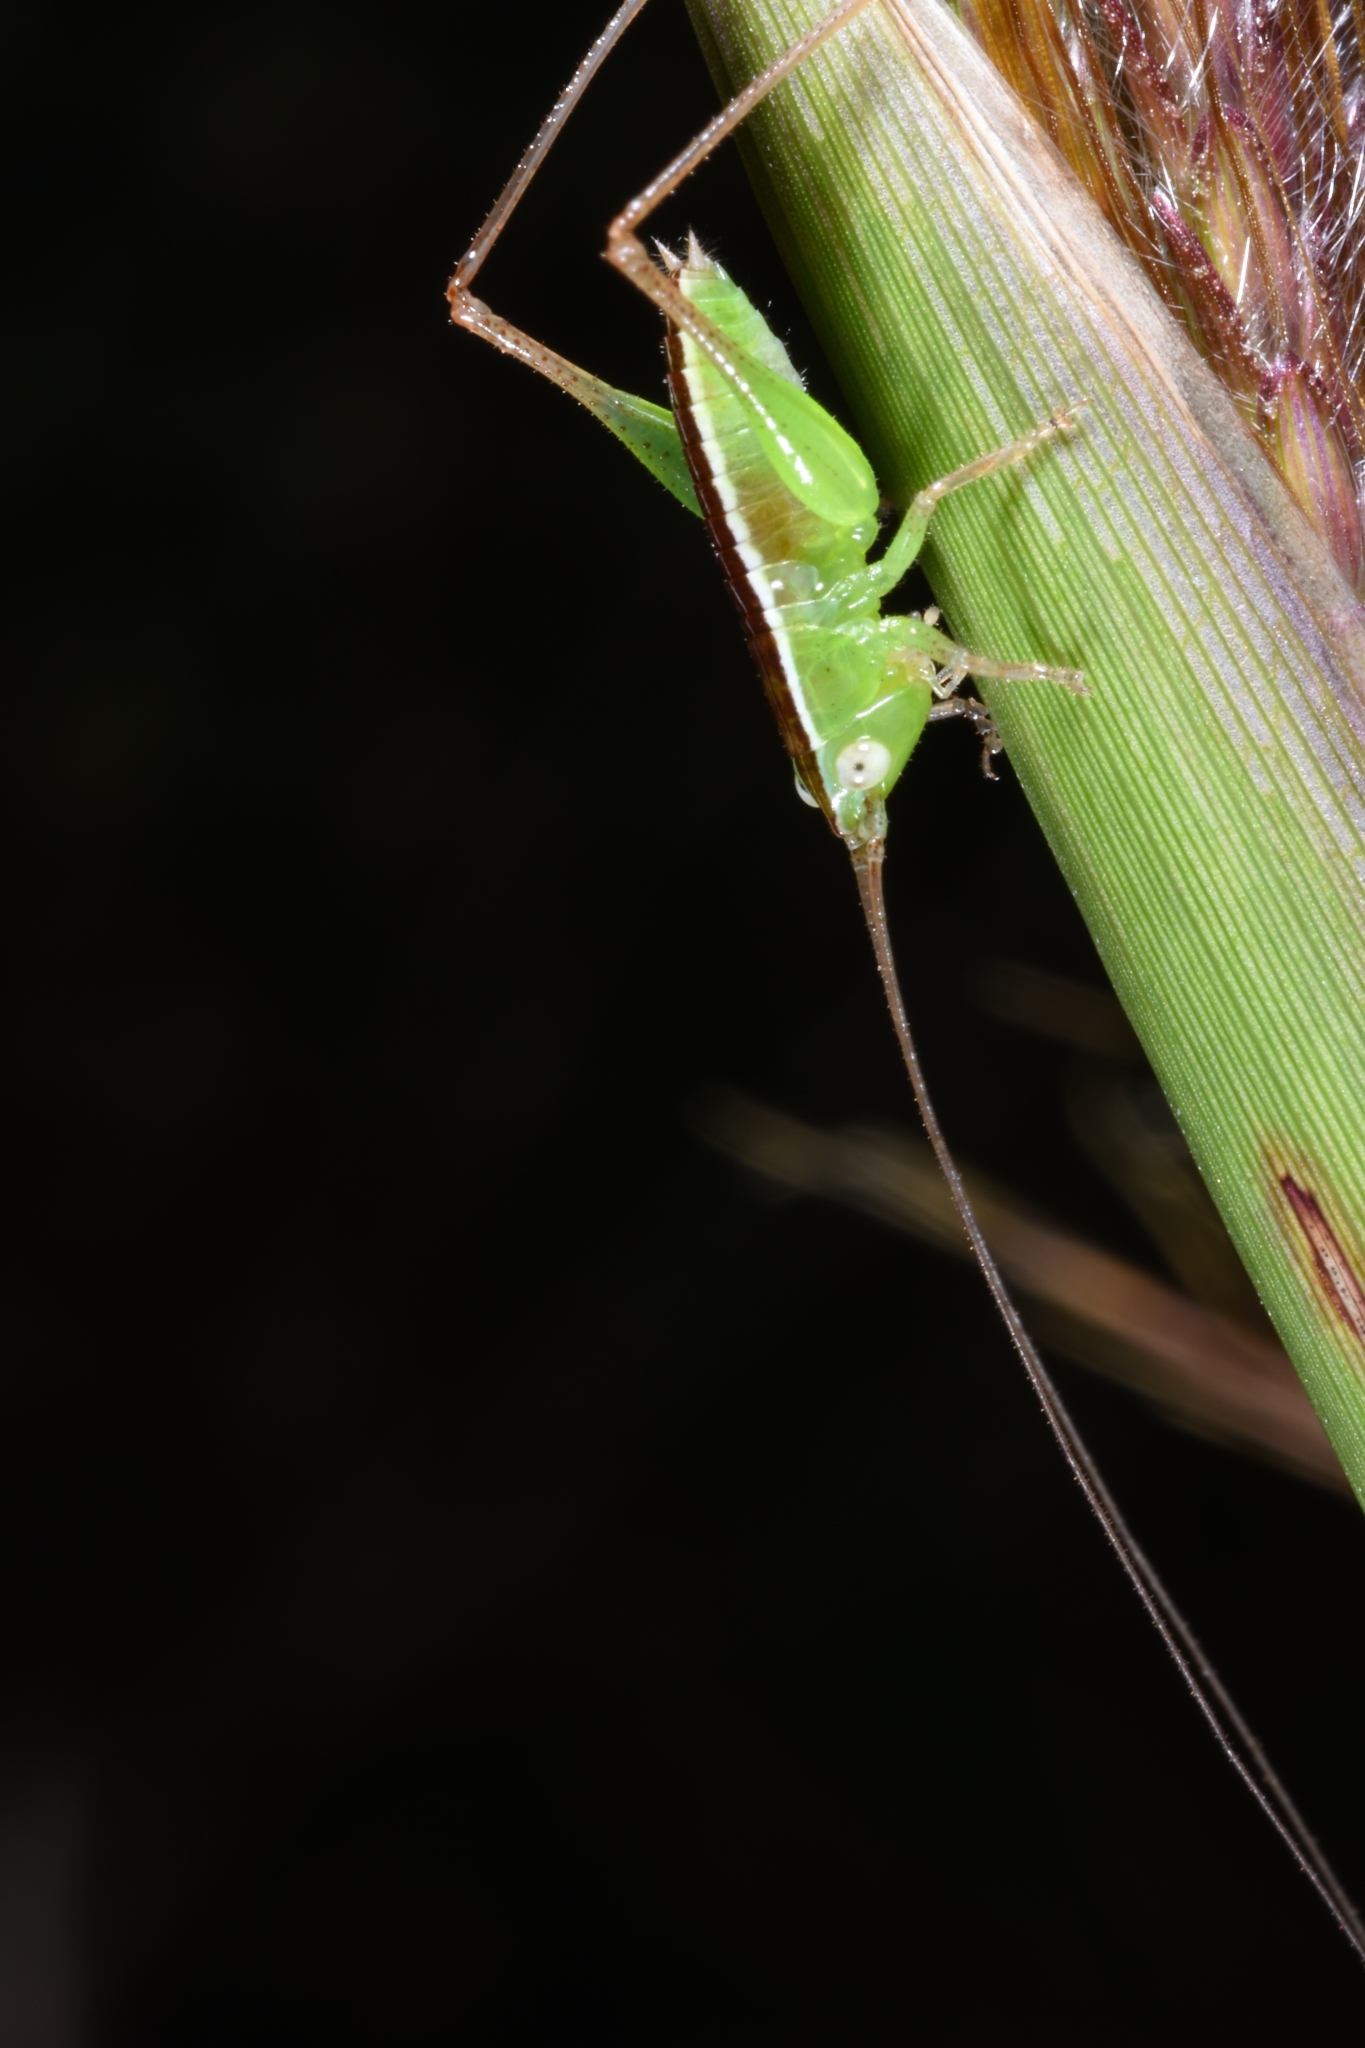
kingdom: Animalia
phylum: Arthropoda
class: Insecta
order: Orthoptera
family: Tettigoniidae
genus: Conocephalus
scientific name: Conocephalus maculatus
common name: Spotted meadow katydid
